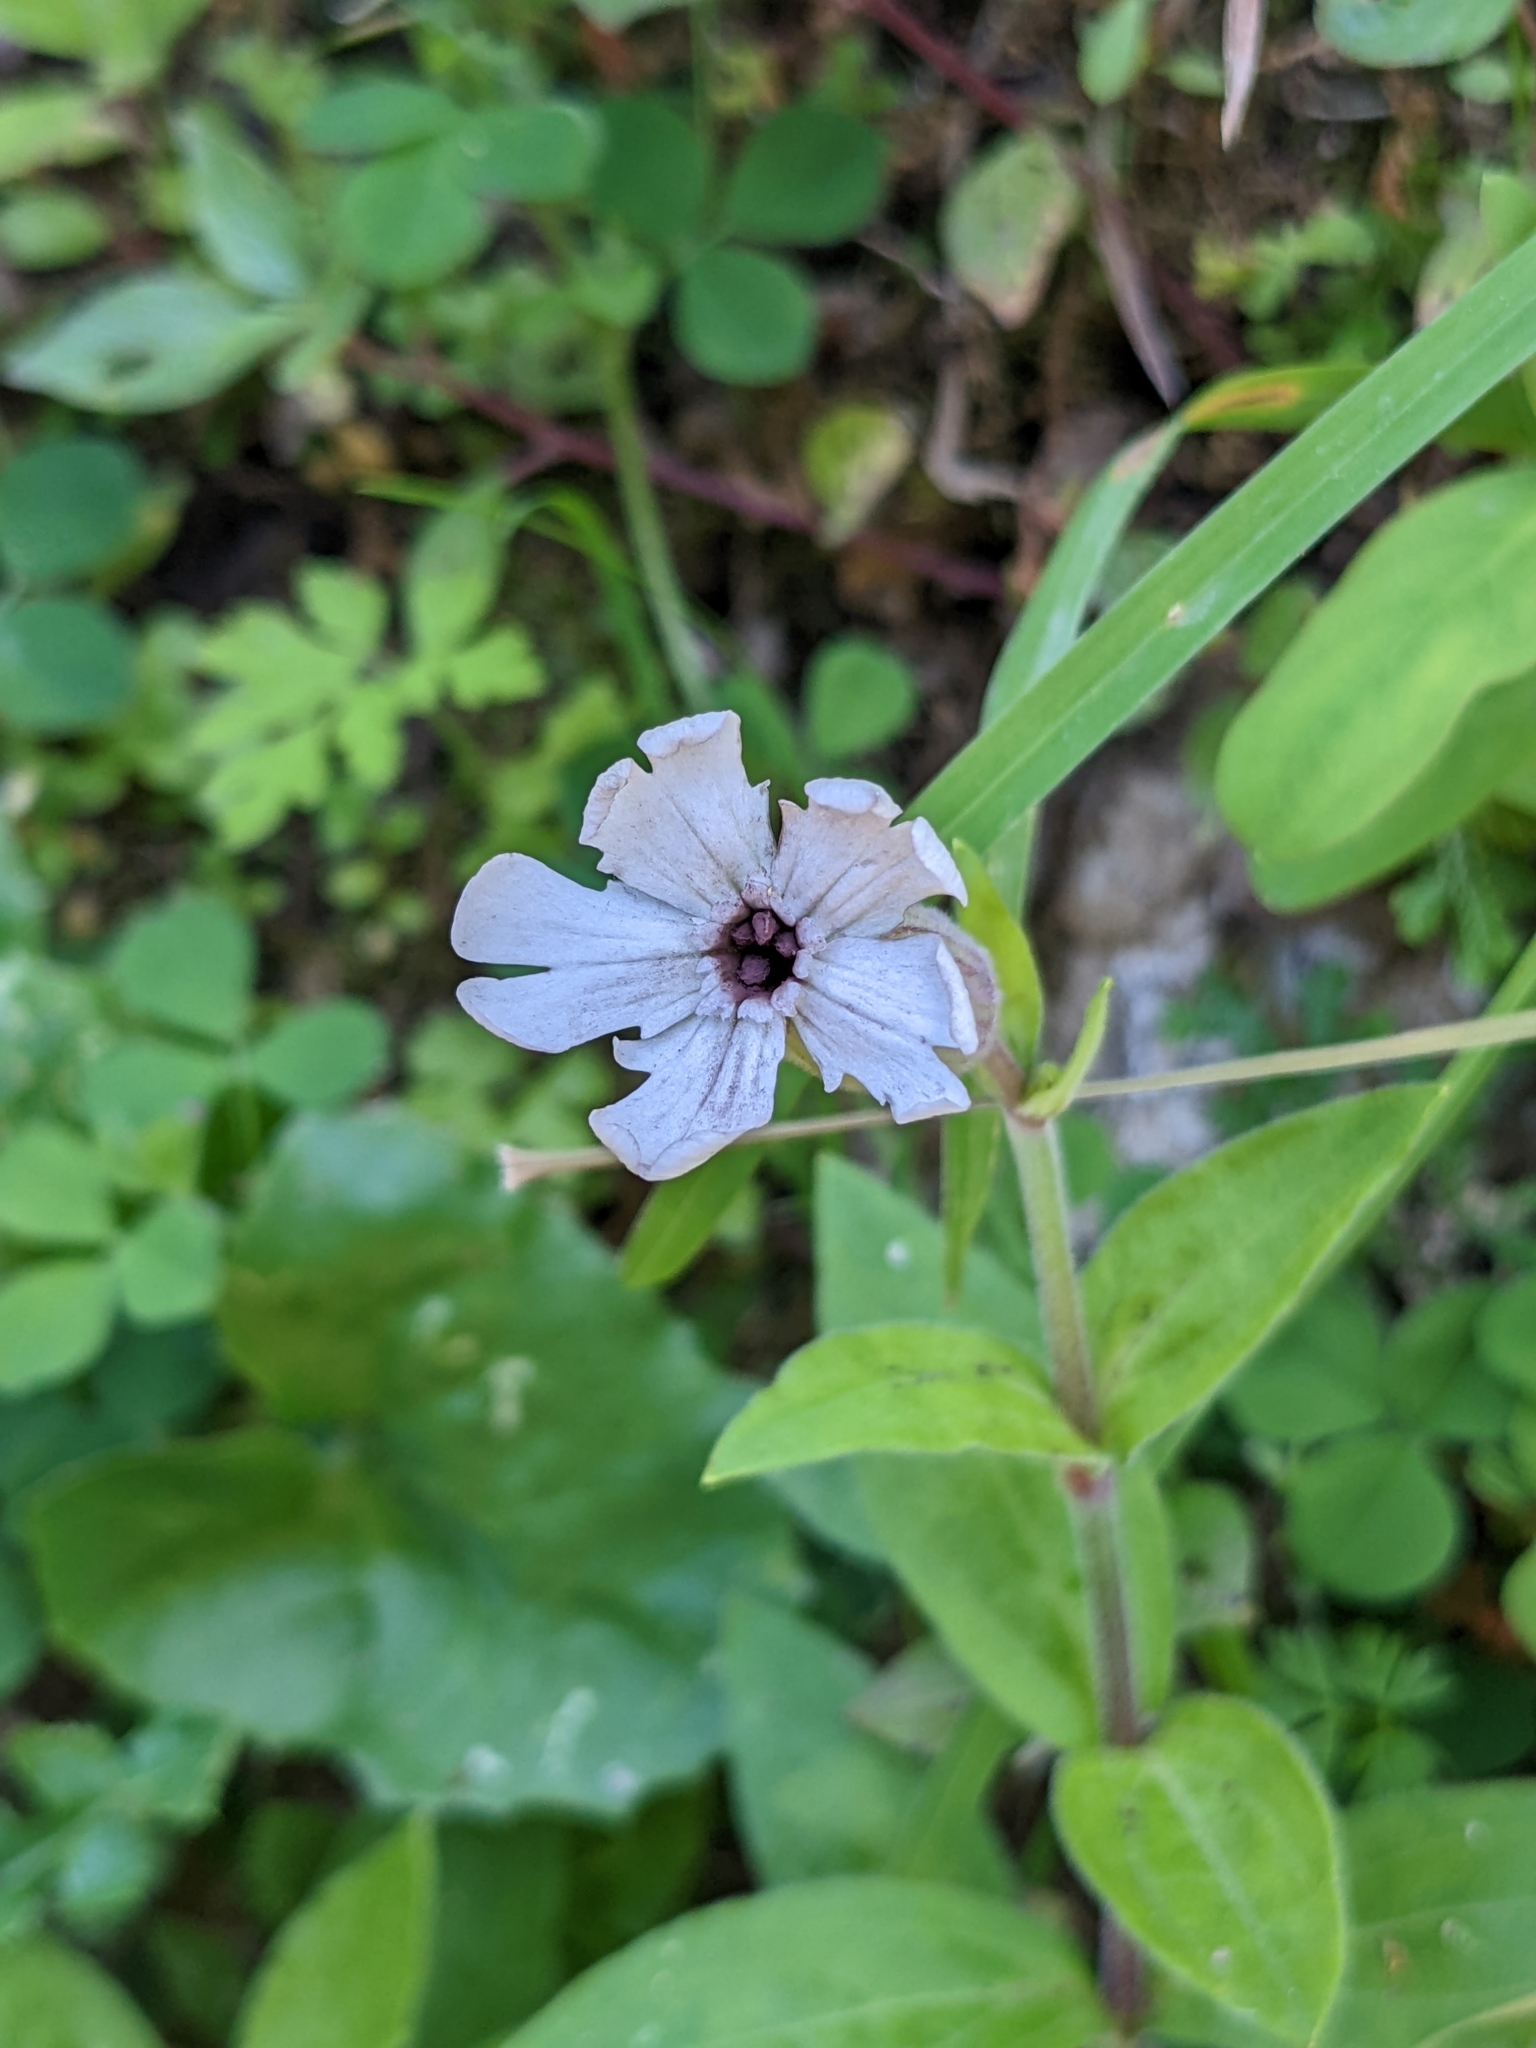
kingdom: Plantae
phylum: Tracheophyta
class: Magnoliopsida
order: Caryophyllales
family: Caryophyllaceae
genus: Silene
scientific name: Silene latifolia
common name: White campion
